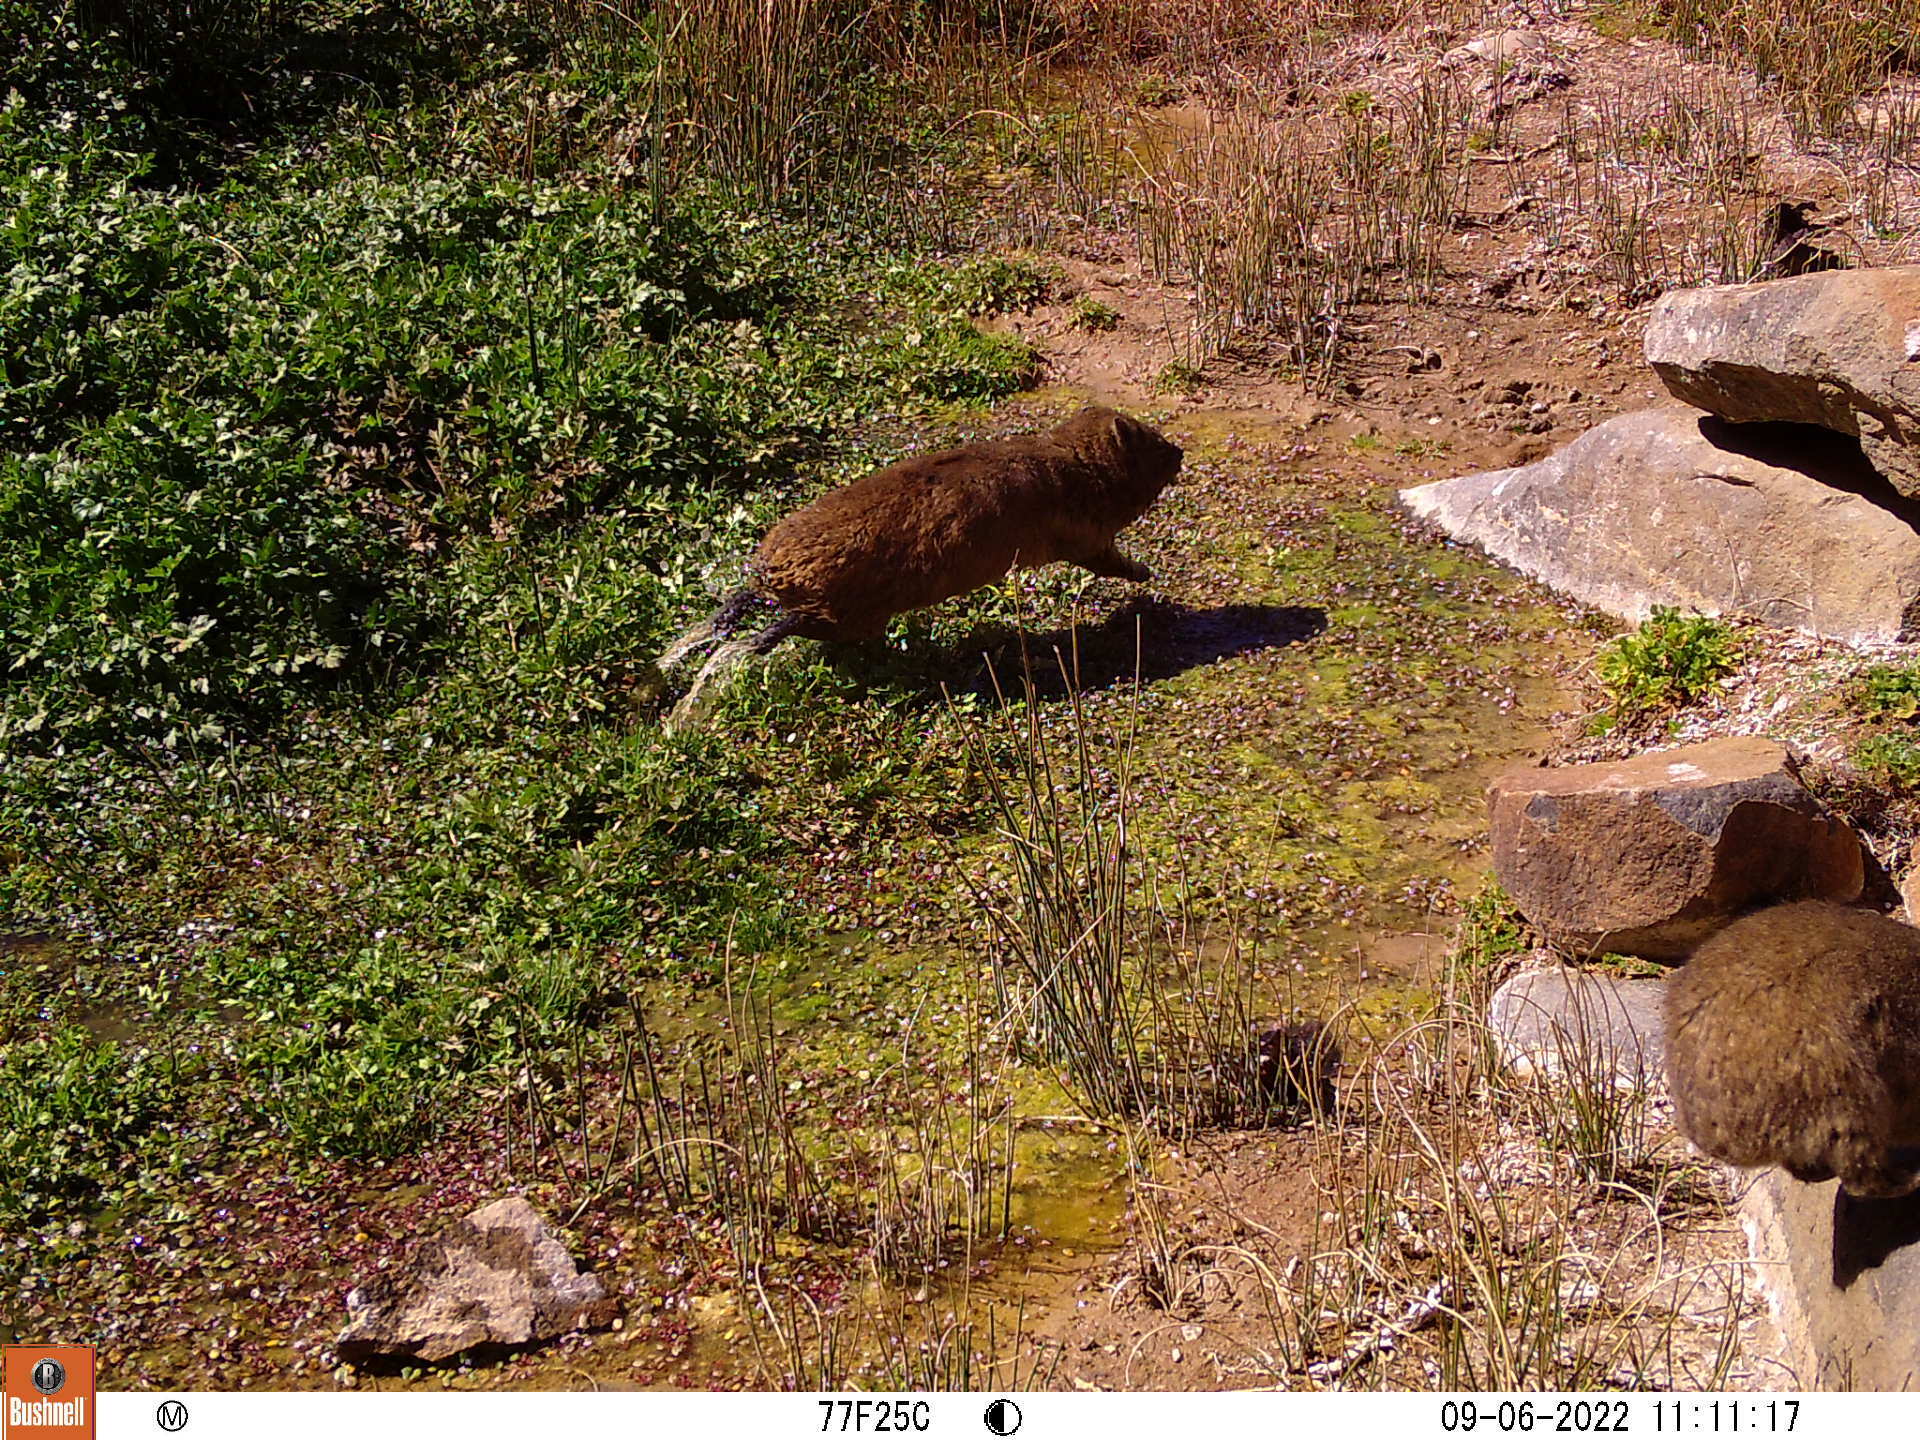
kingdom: Animalia
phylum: Chordata
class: Mammalia
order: Hyracoidea
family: Procaviidae
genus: Procavia
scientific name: Procavia capensis
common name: Rock hyrax
